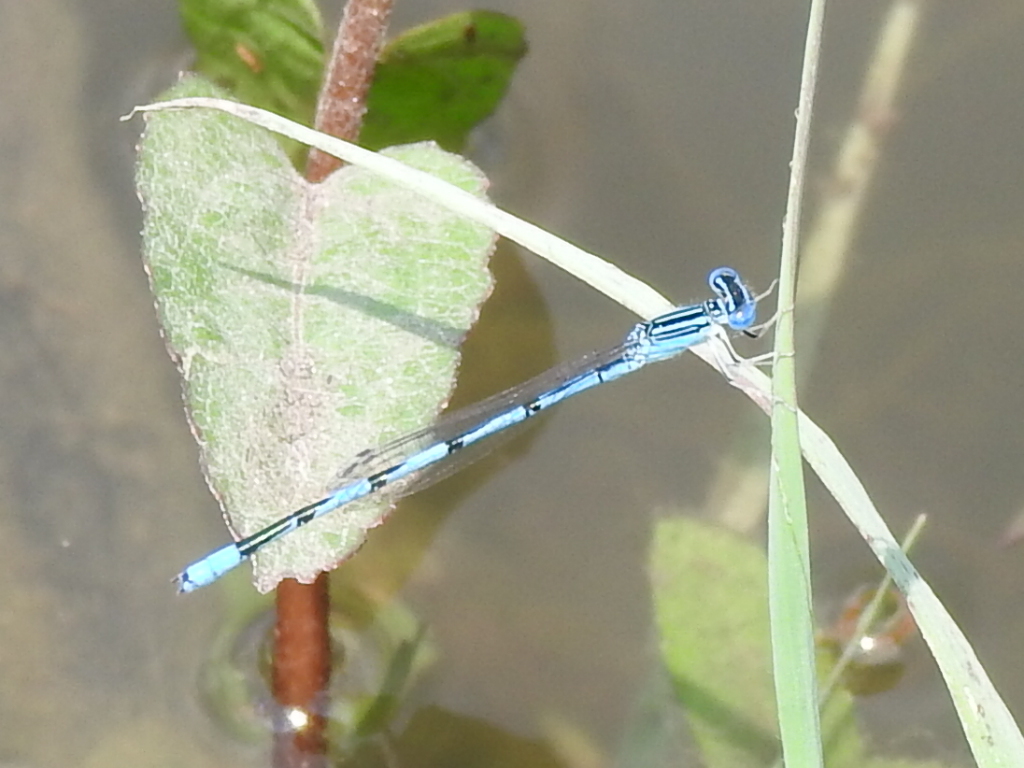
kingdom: Animalia
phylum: Arthropoda
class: Insecta
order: Odonata
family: Coenagrionidae
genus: Enallagma
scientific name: Enallagma basidens
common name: Double-striped bluet
